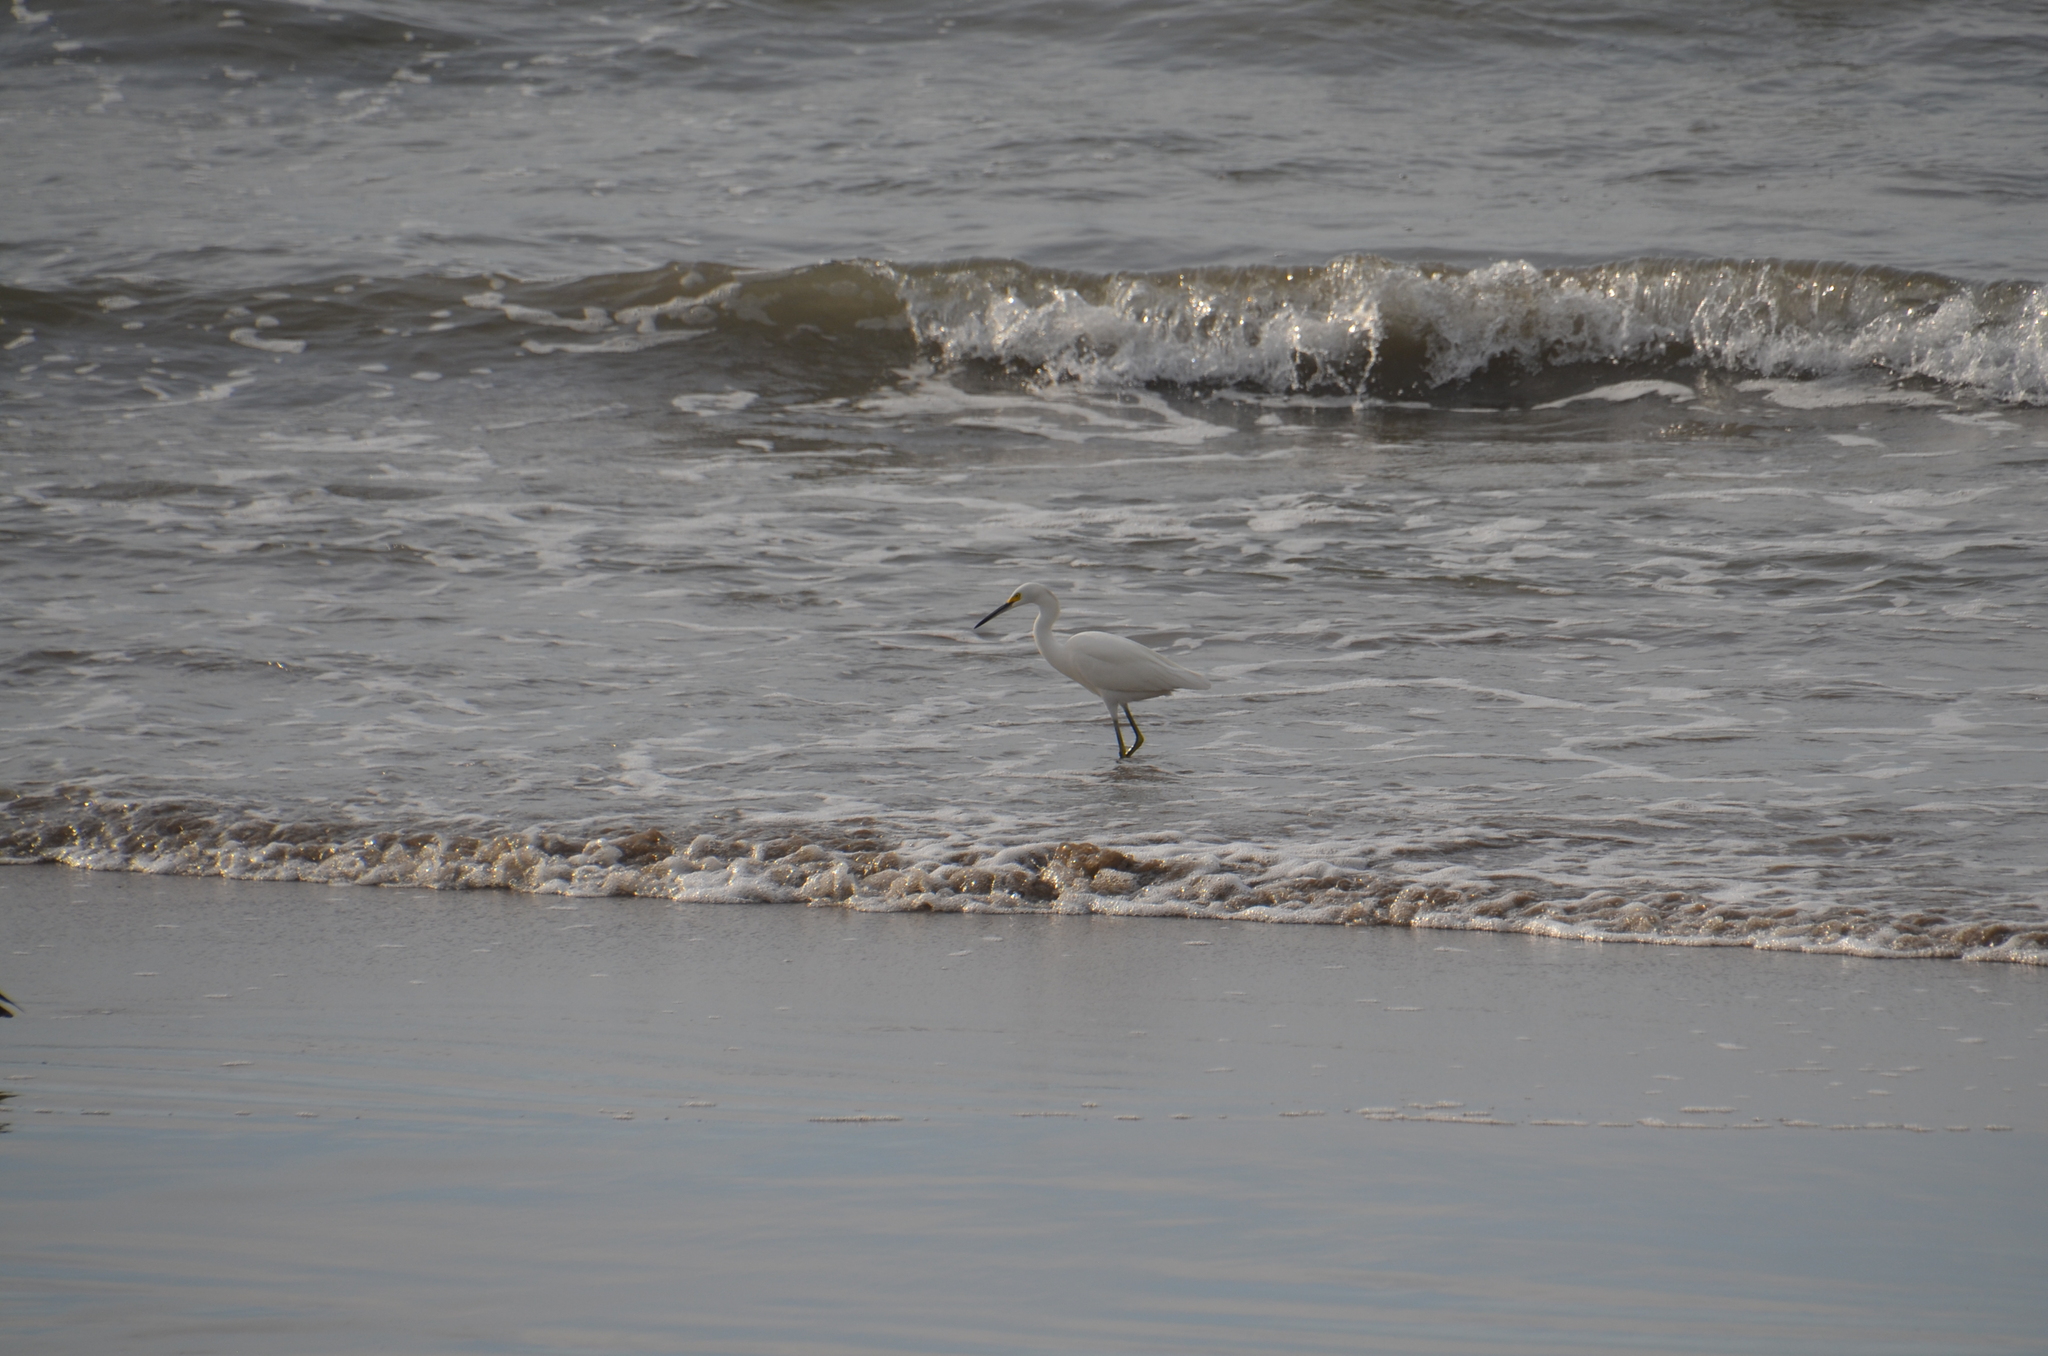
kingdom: Animalia
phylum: Chordata
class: Aves
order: Pelecaniformes
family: Ardeidae
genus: Egretta
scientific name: Egretta thula
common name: Snowy egret
